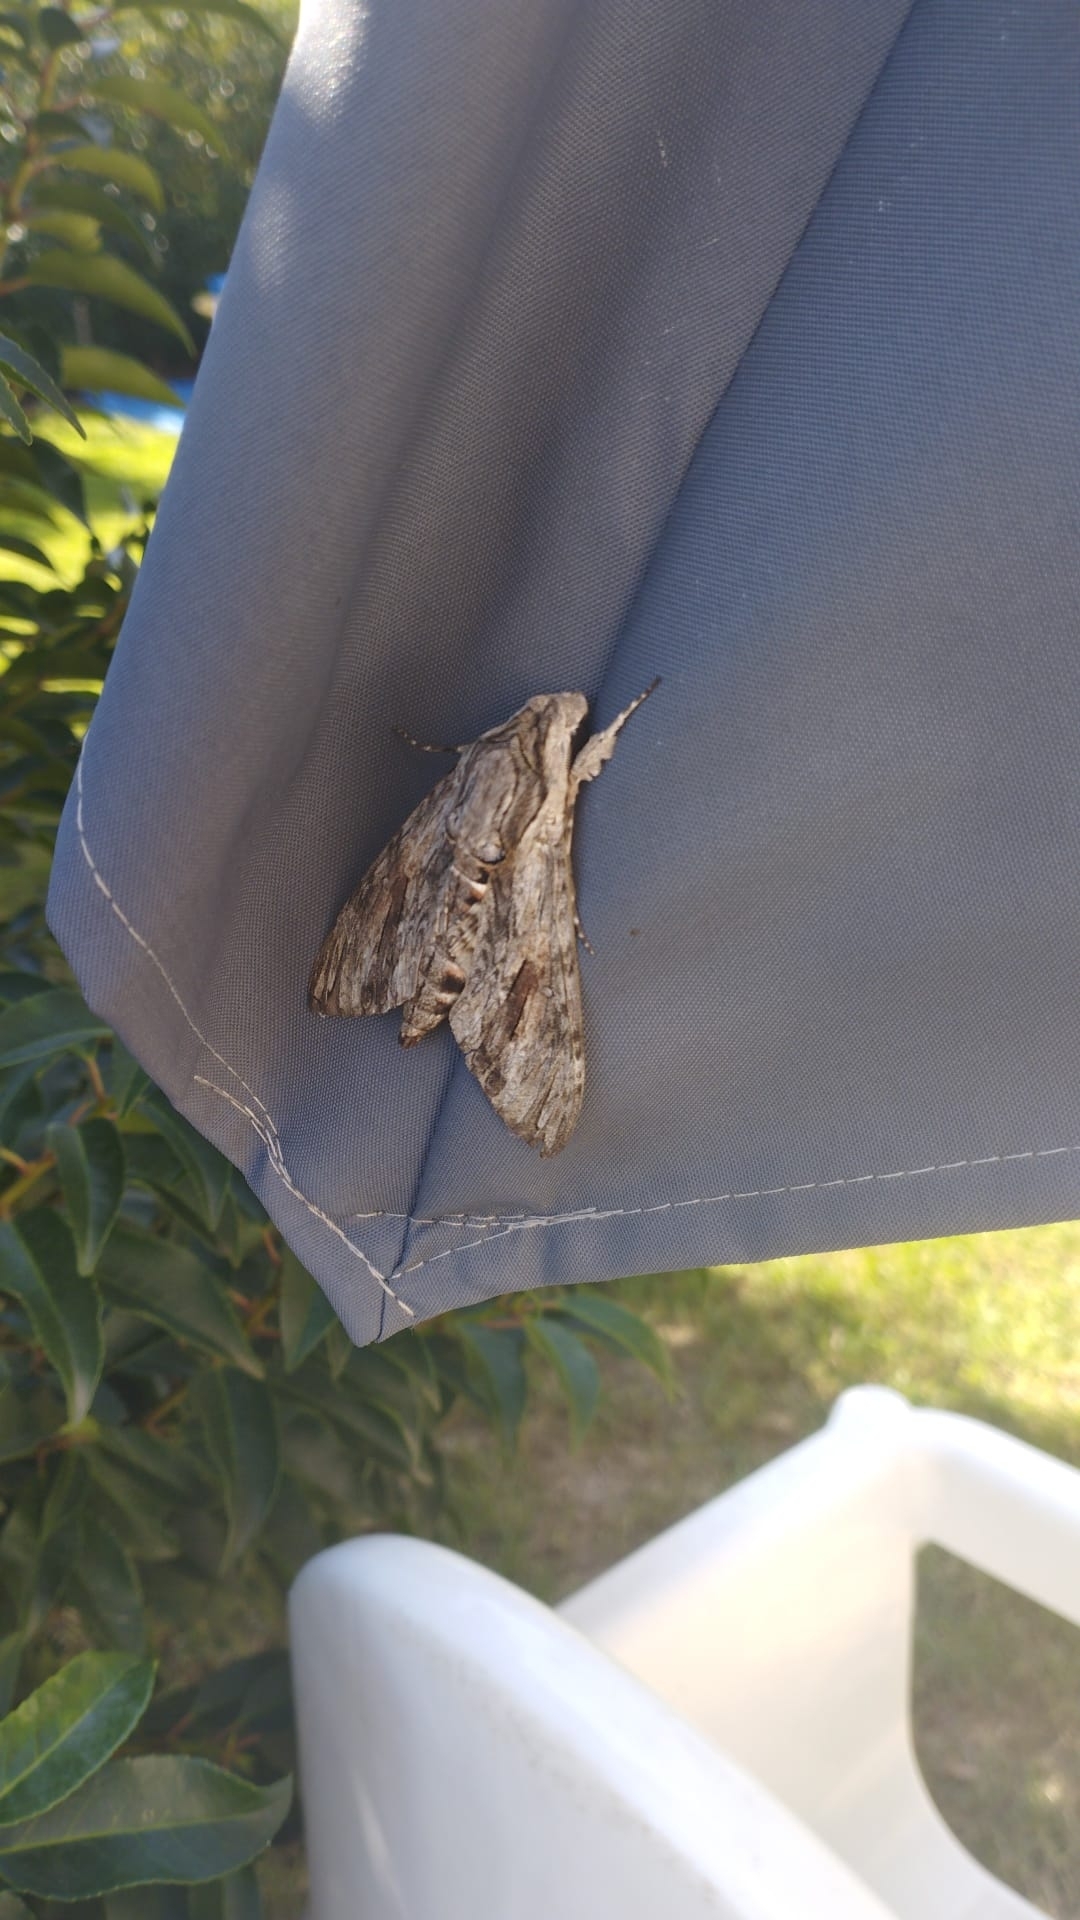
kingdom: Animalia
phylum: Arthropoda
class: Insecta
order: Lepidoptera
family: Sphingidae
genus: Agrius
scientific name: Agrius convolvuli
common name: Convolvulus hawkmoth
